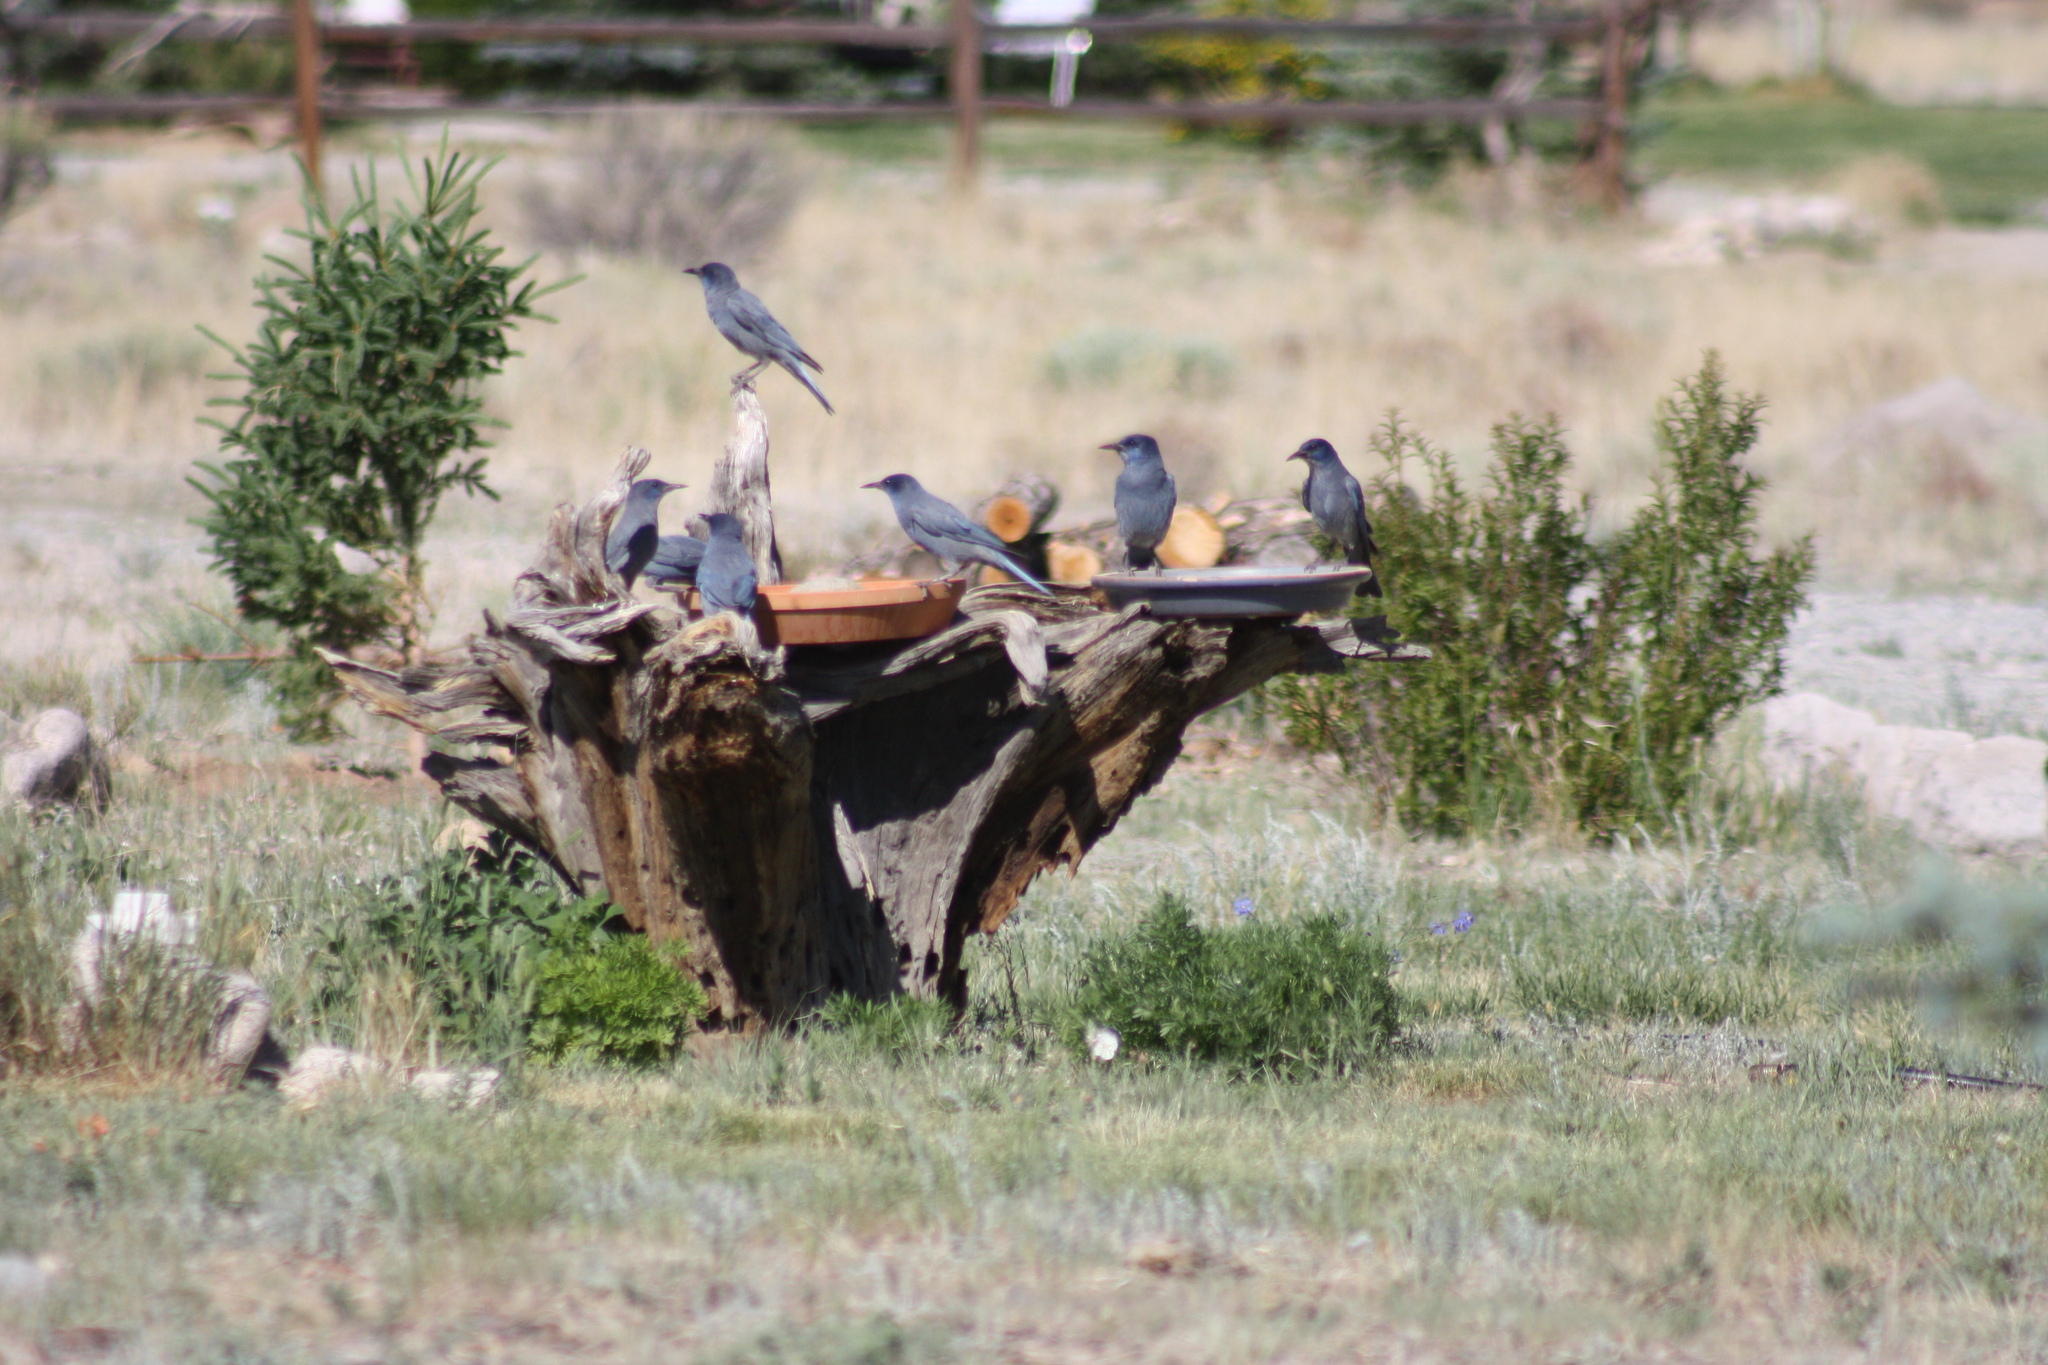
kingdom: Animalia
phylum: Chordata
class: Aves
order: Passeriformes
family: Corvidae
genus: Gymnorhinus
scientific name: Gymnorhinus cyanocephalus
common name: Pinyon jay
